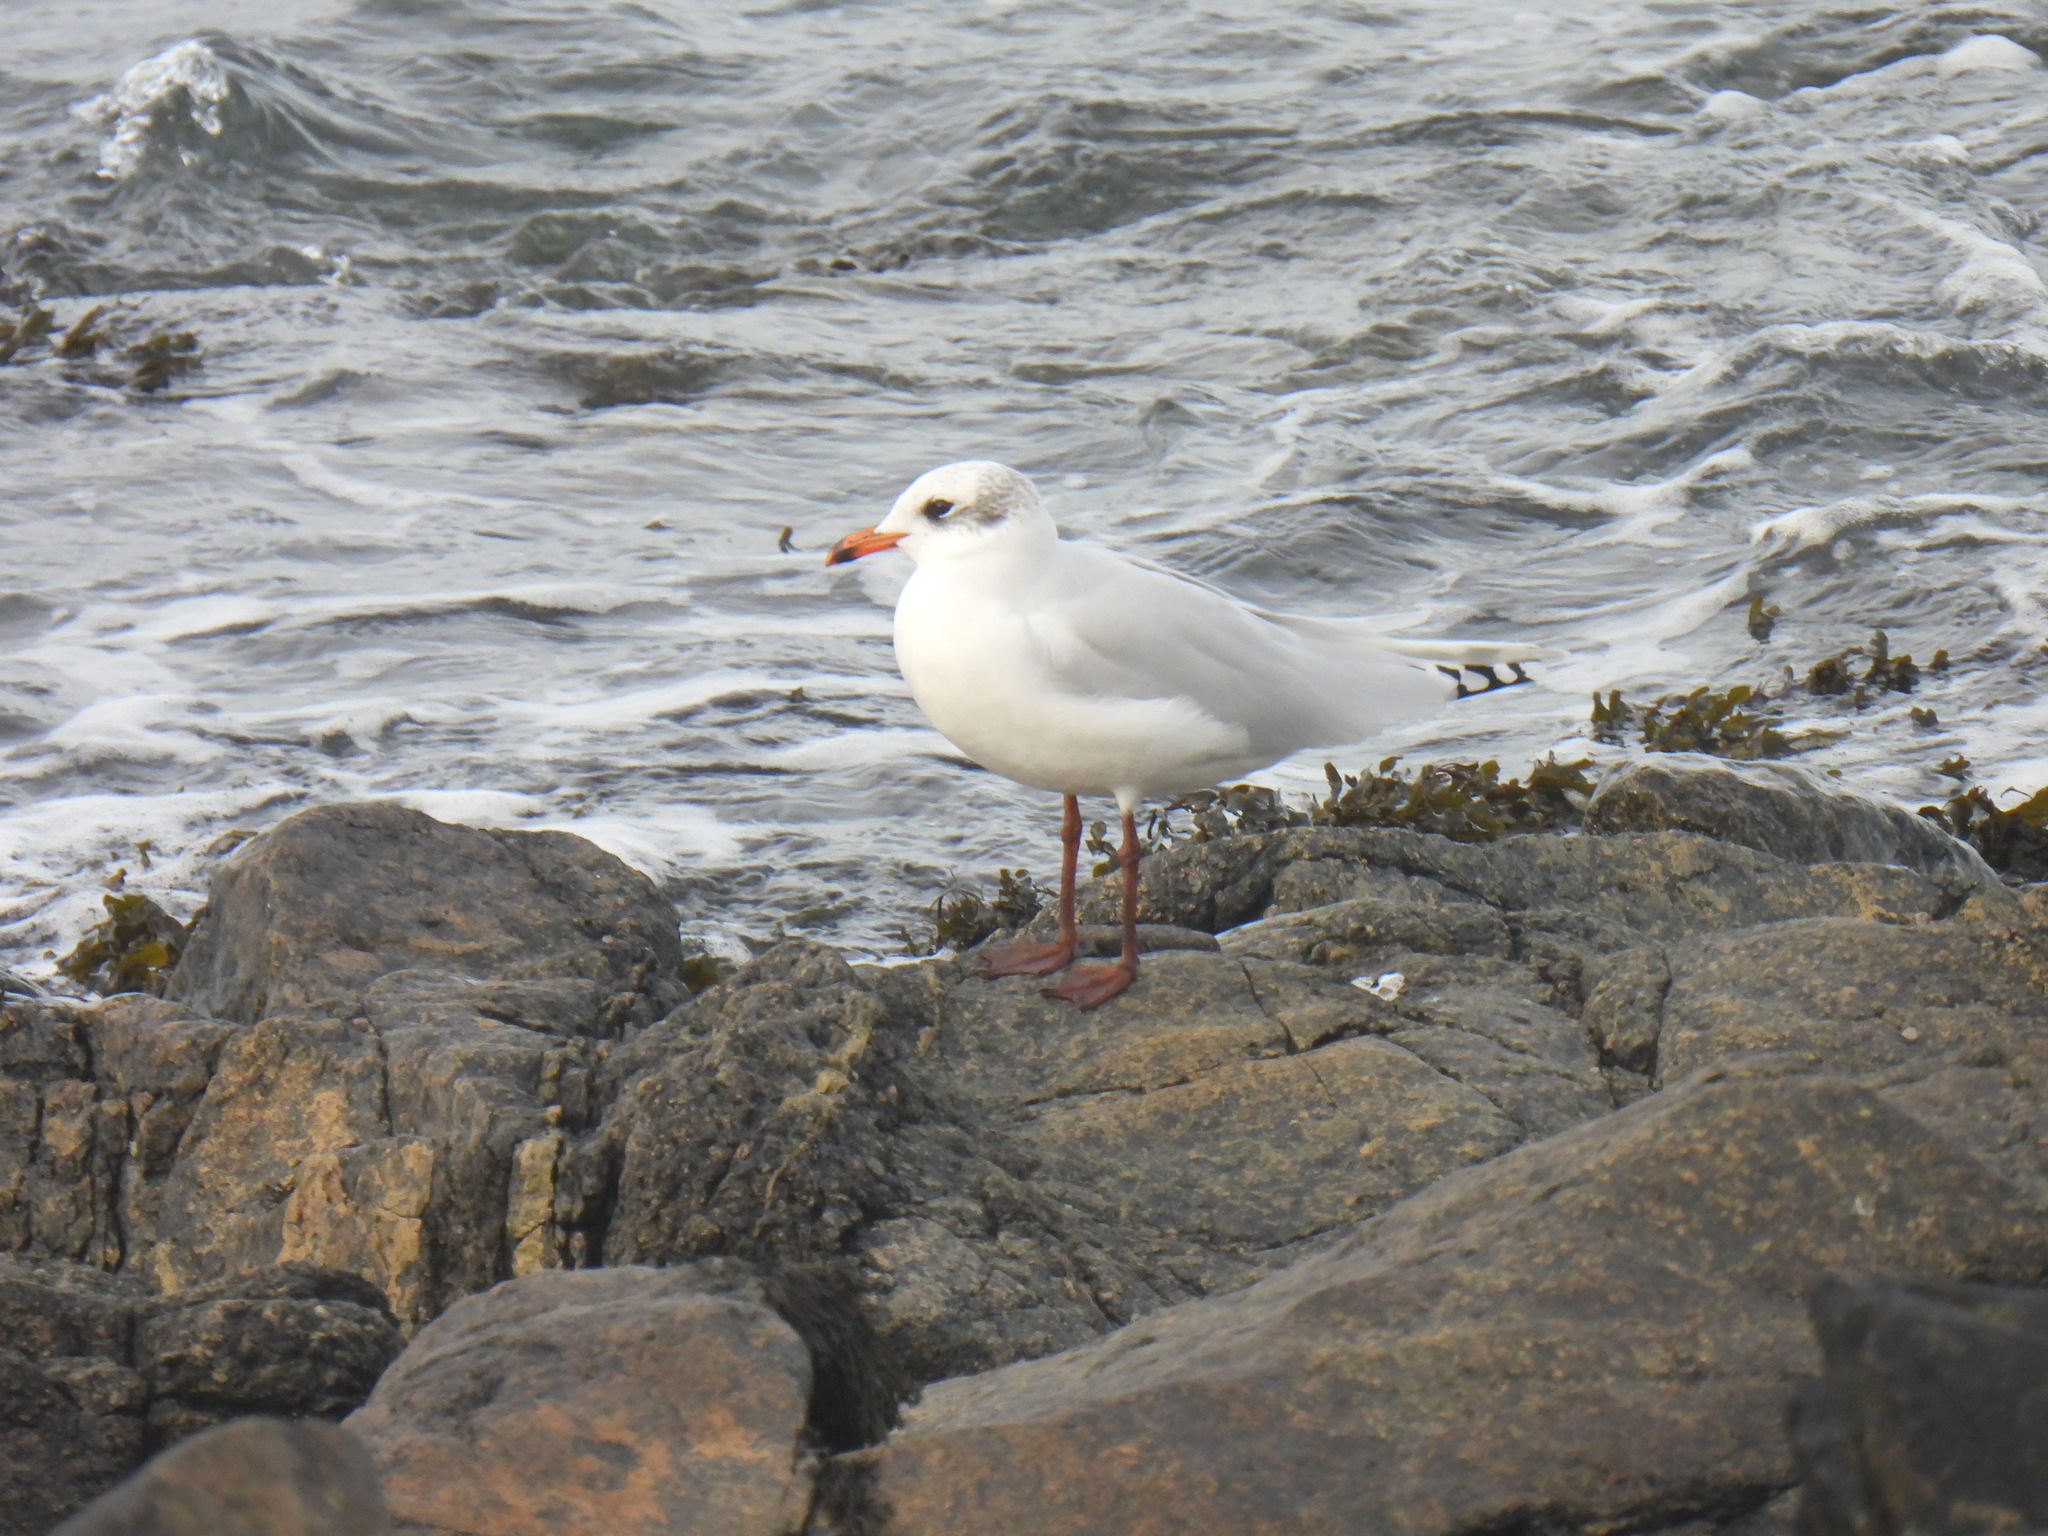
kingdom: Animalia
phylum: Chordata
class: Aves
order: Charadriiformes
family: Laridae
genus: Chroicocephalus
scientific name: Chroicocephalus ridibundus
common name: Black-headed gull
